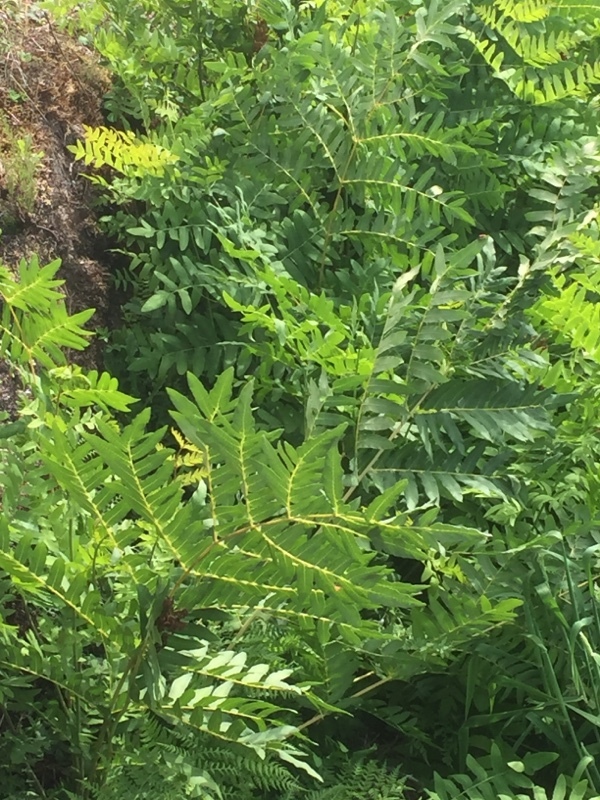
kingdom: Plantae
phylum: Tracheophyta
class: Polypodiopsida
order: Osmundales
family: Osmundaceae
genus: Osmunda
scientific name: Osmunda regalis
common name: Royal fern
